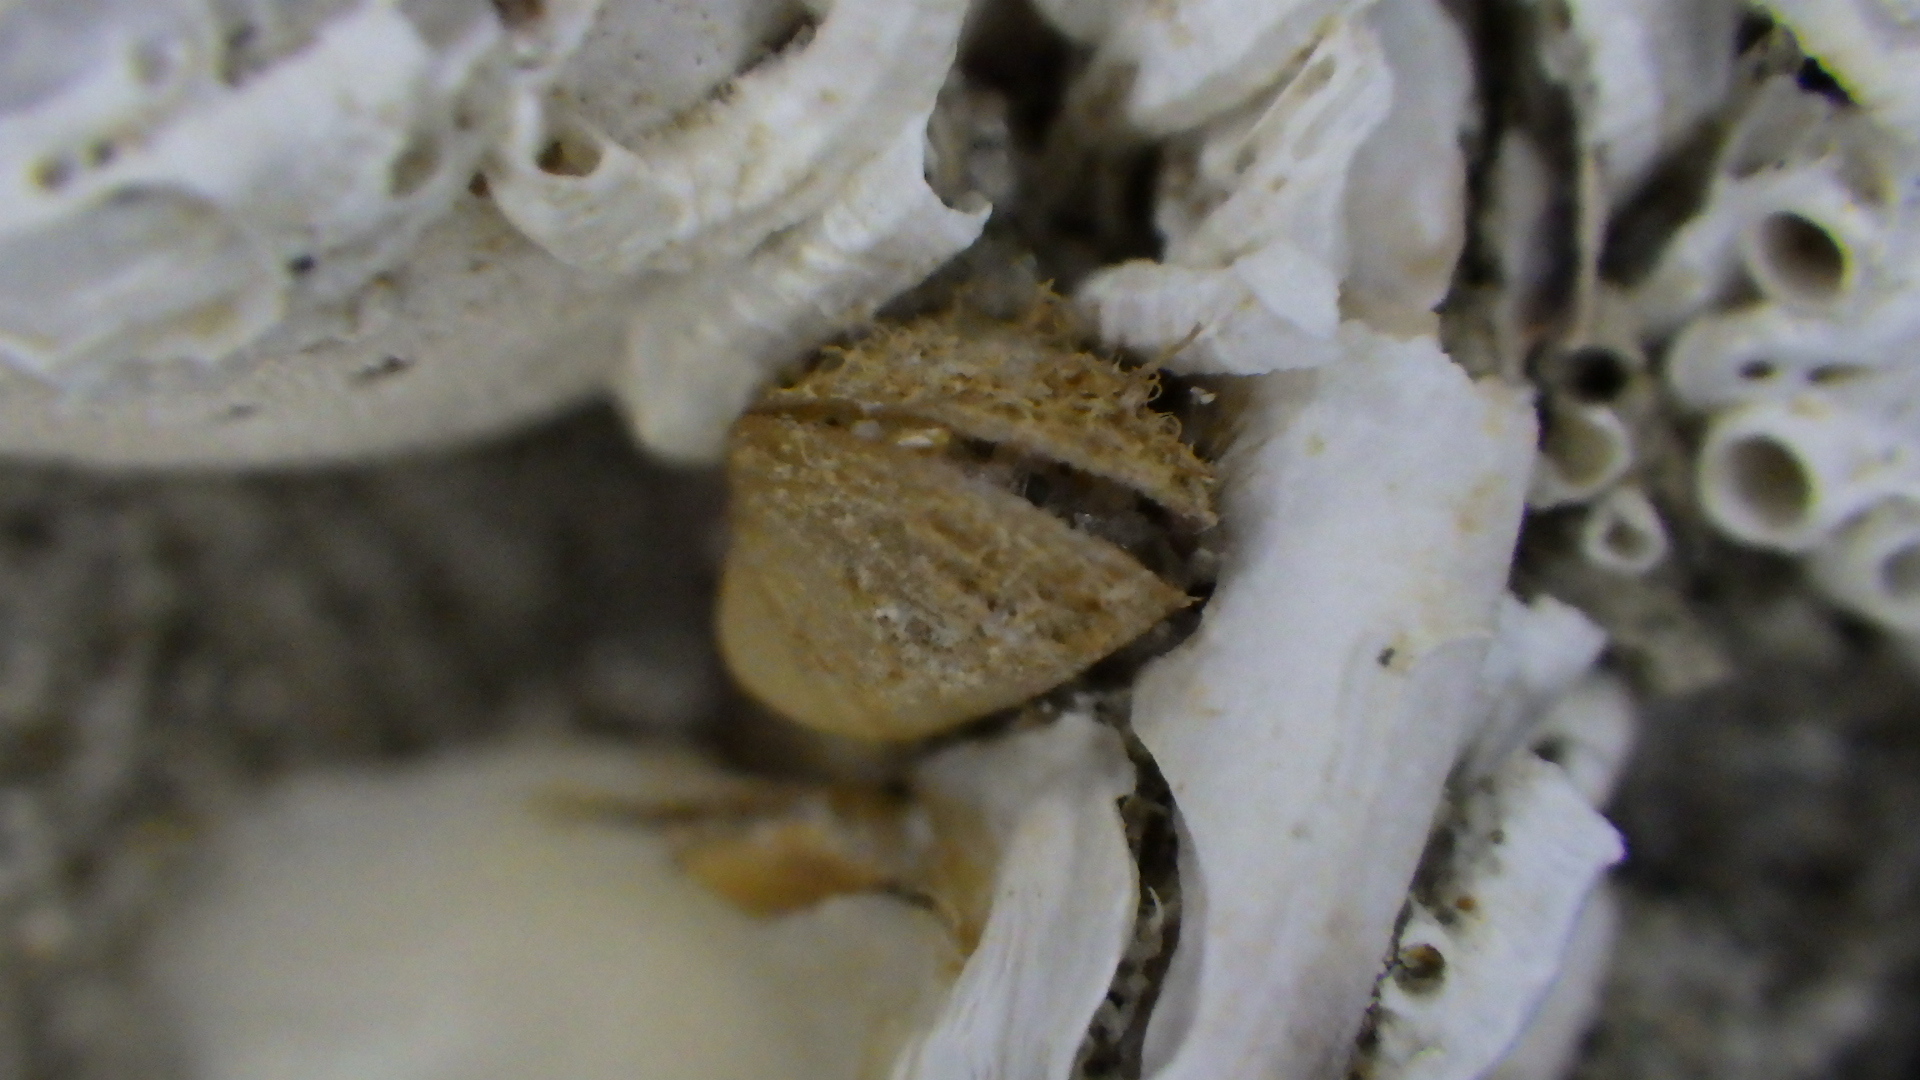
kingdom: Animalia
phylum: Mollusca
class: Bivalvia
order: Mytilida
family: Mytilidae
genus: Gregariella
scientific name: Gregariella barbata
